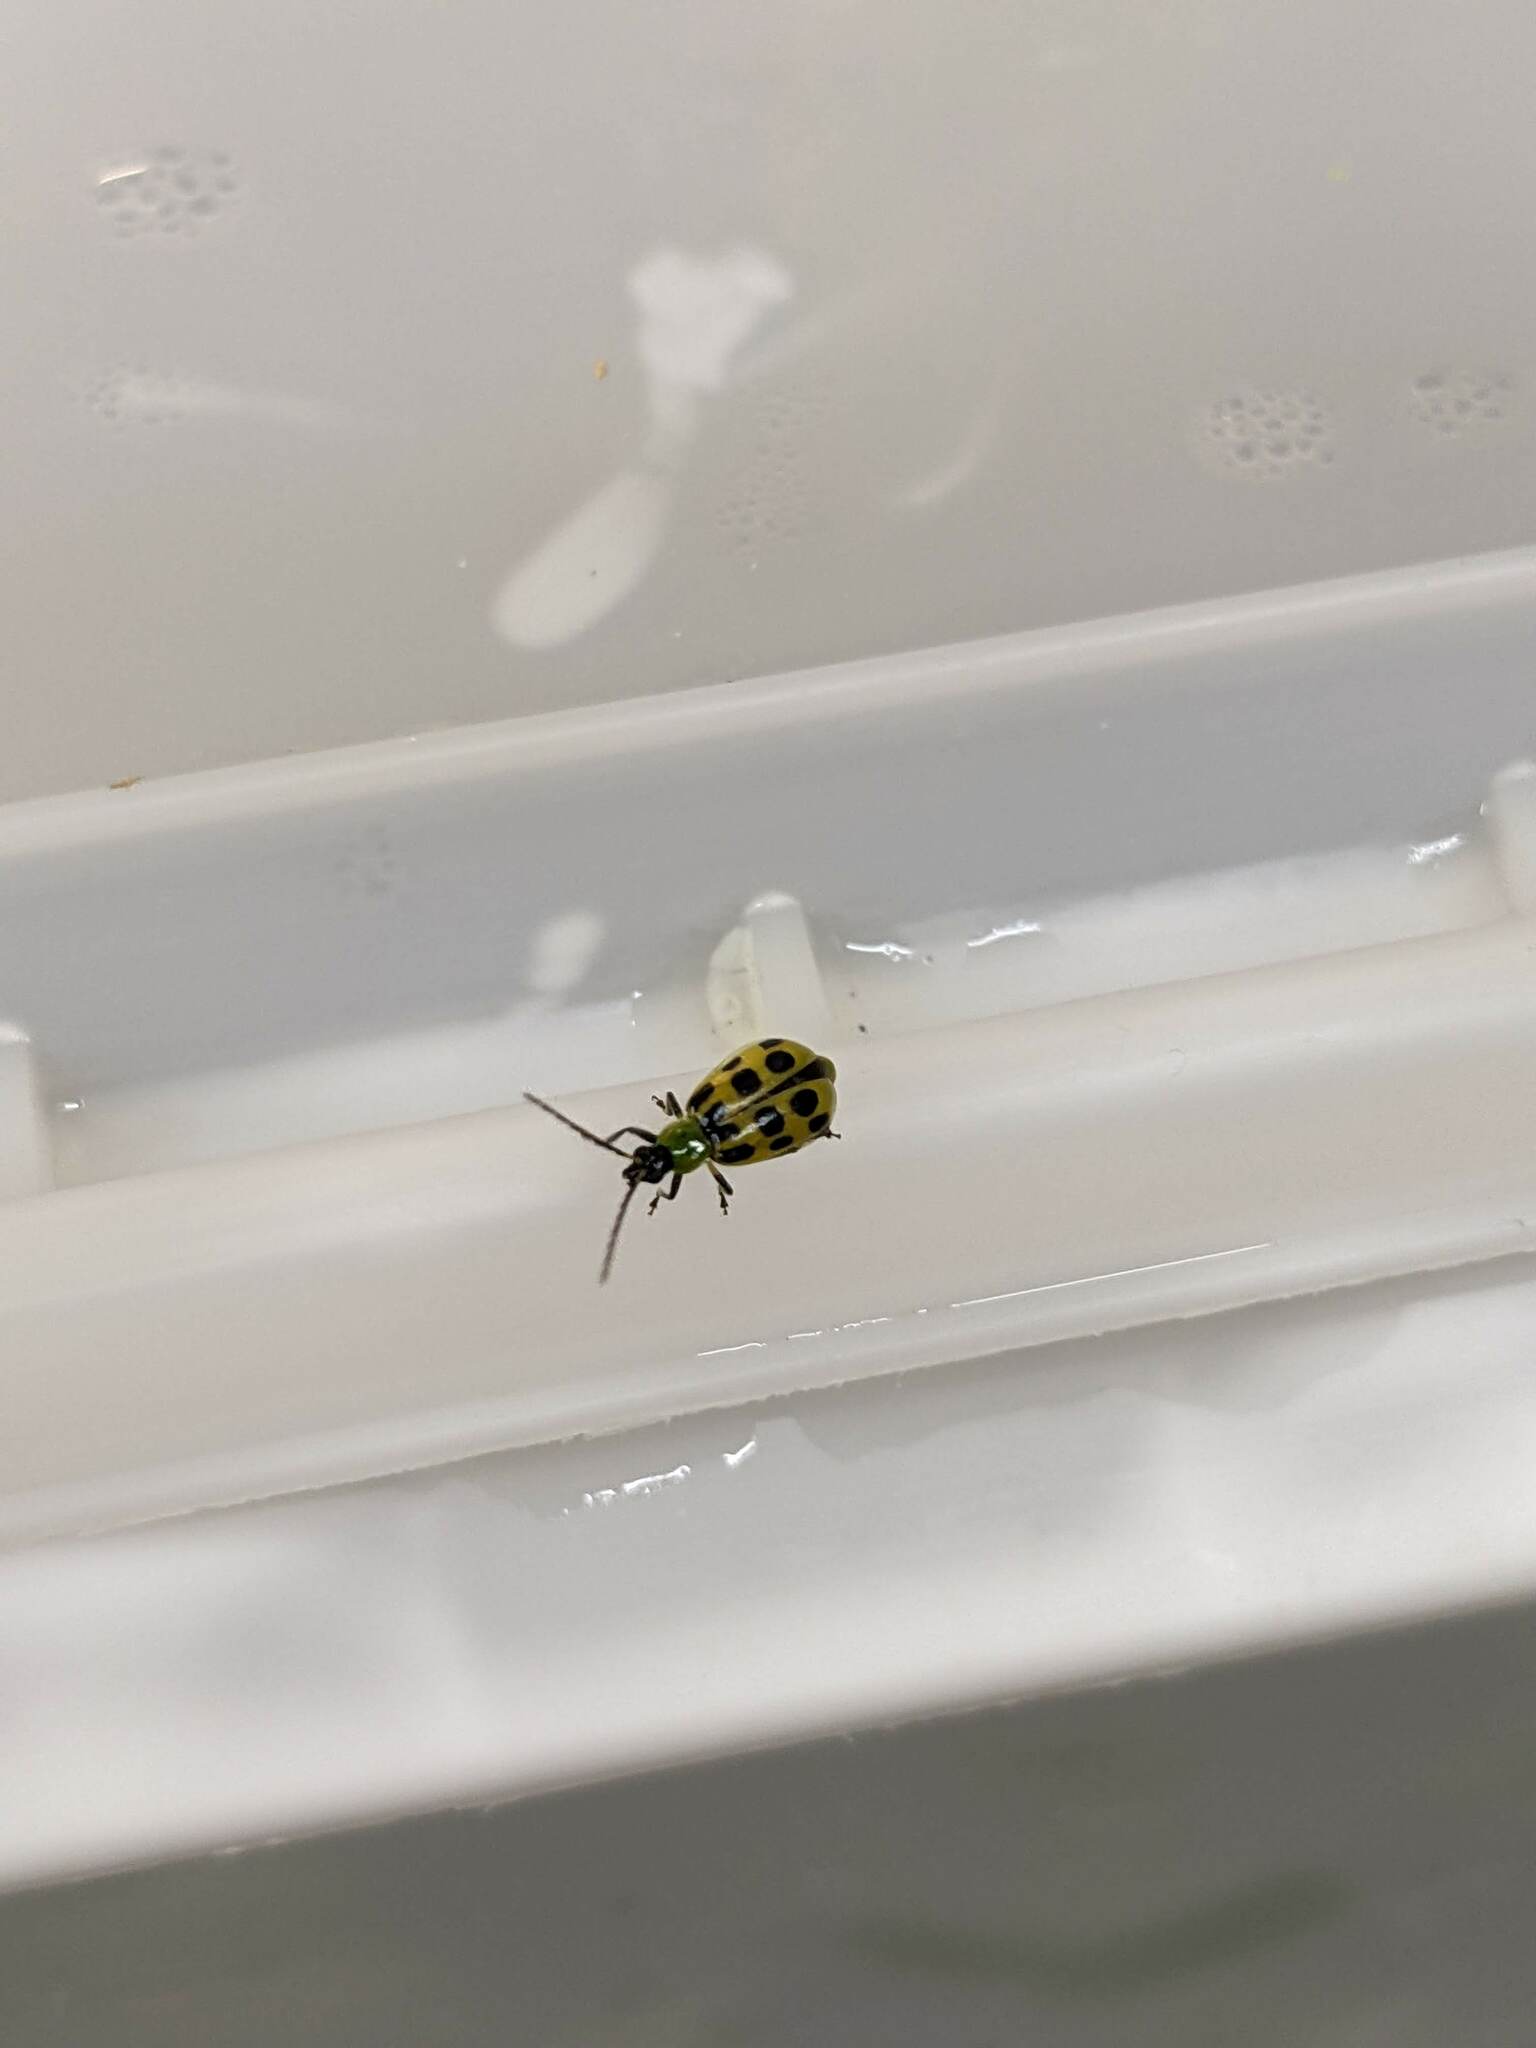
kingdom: Animalia
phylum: Arthropoda
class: Insecta
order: Coleoptera
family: Chrysomelidae
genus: Diabrotica
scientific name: Diabrotica undecimpunctata
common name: Spotted cucumber beetle
